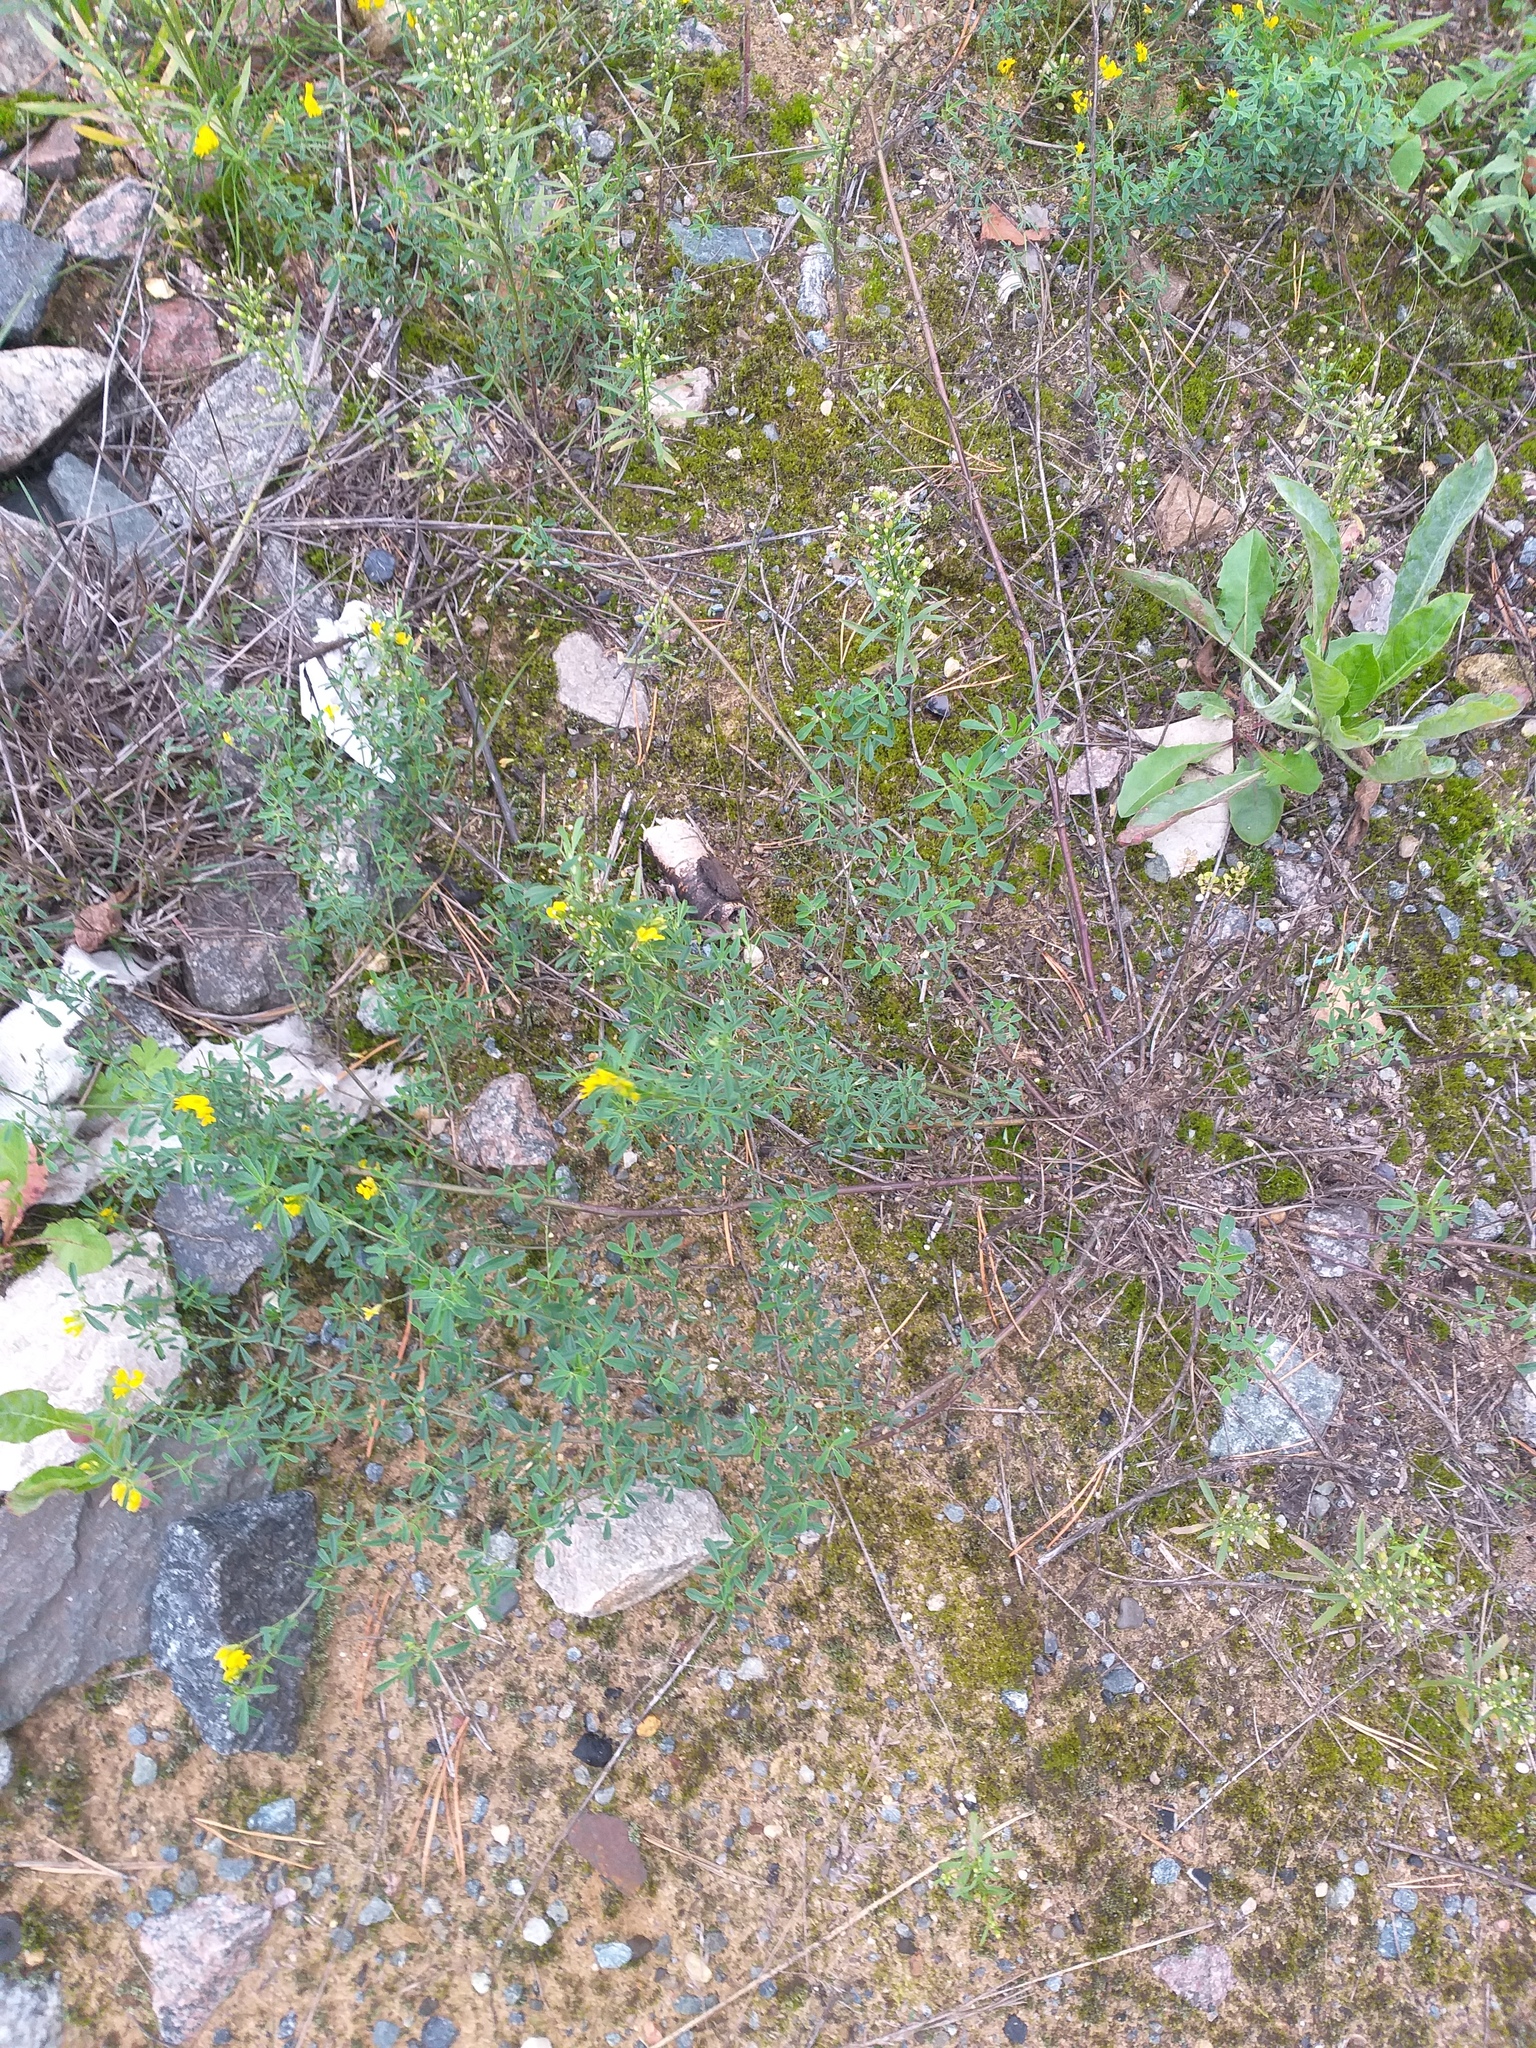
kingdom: Plantae
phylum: Tracheophyta
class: Magnoliopsida
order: Fabales
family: Fabaceae
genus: Medicago
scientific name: Medicago falcata
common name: Sickle medick
